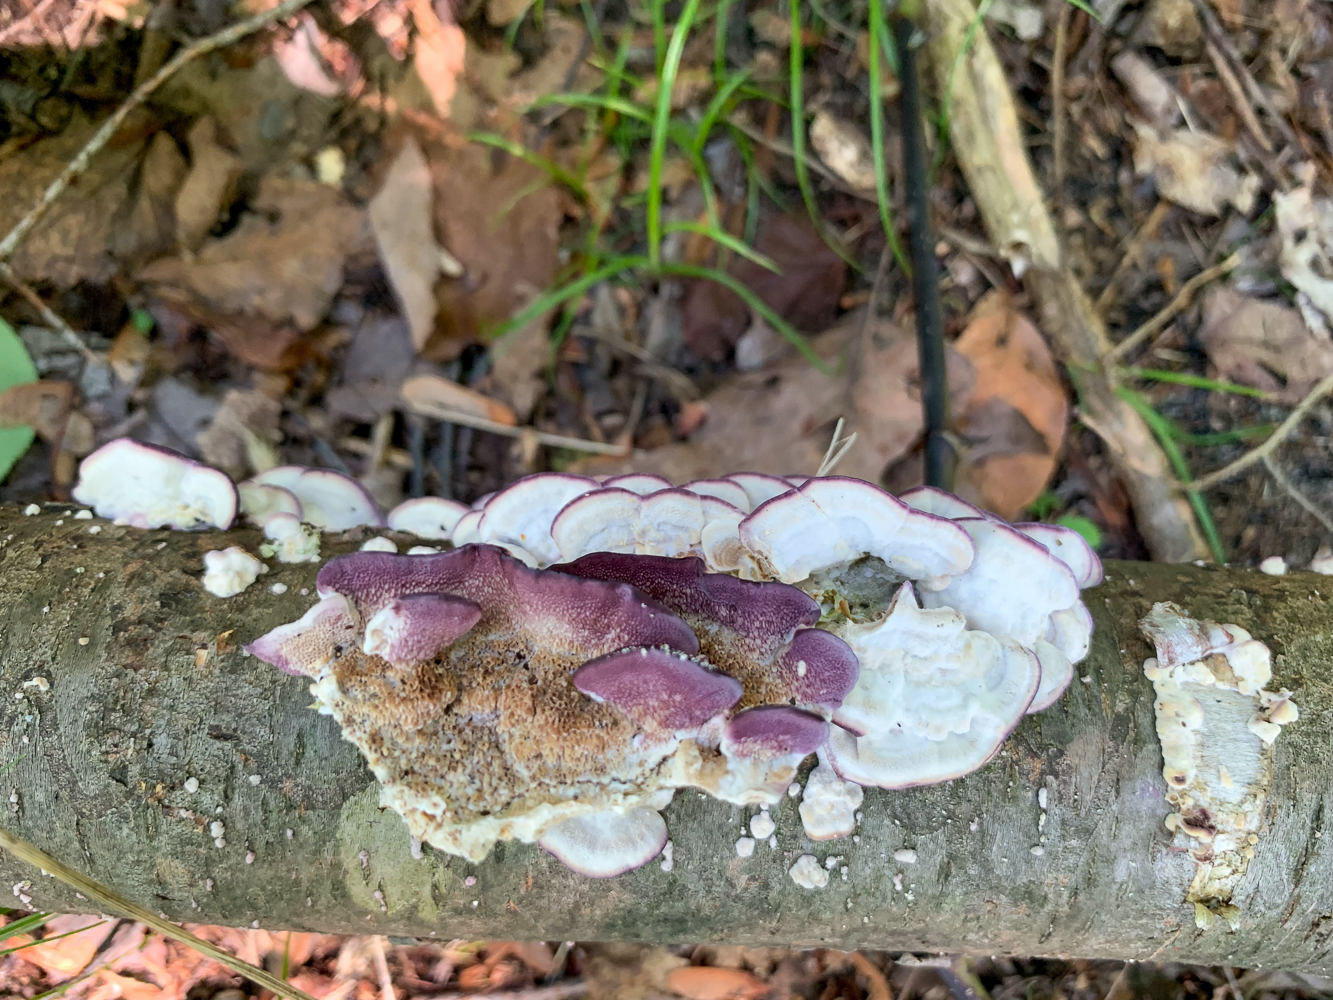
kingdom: Fungi
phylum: Basidiomycota
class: Agaricomycetes
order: Hymenochaetales
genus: Trichaptum
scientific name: Trichaptum biforme
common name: Violet-toothed polypore
